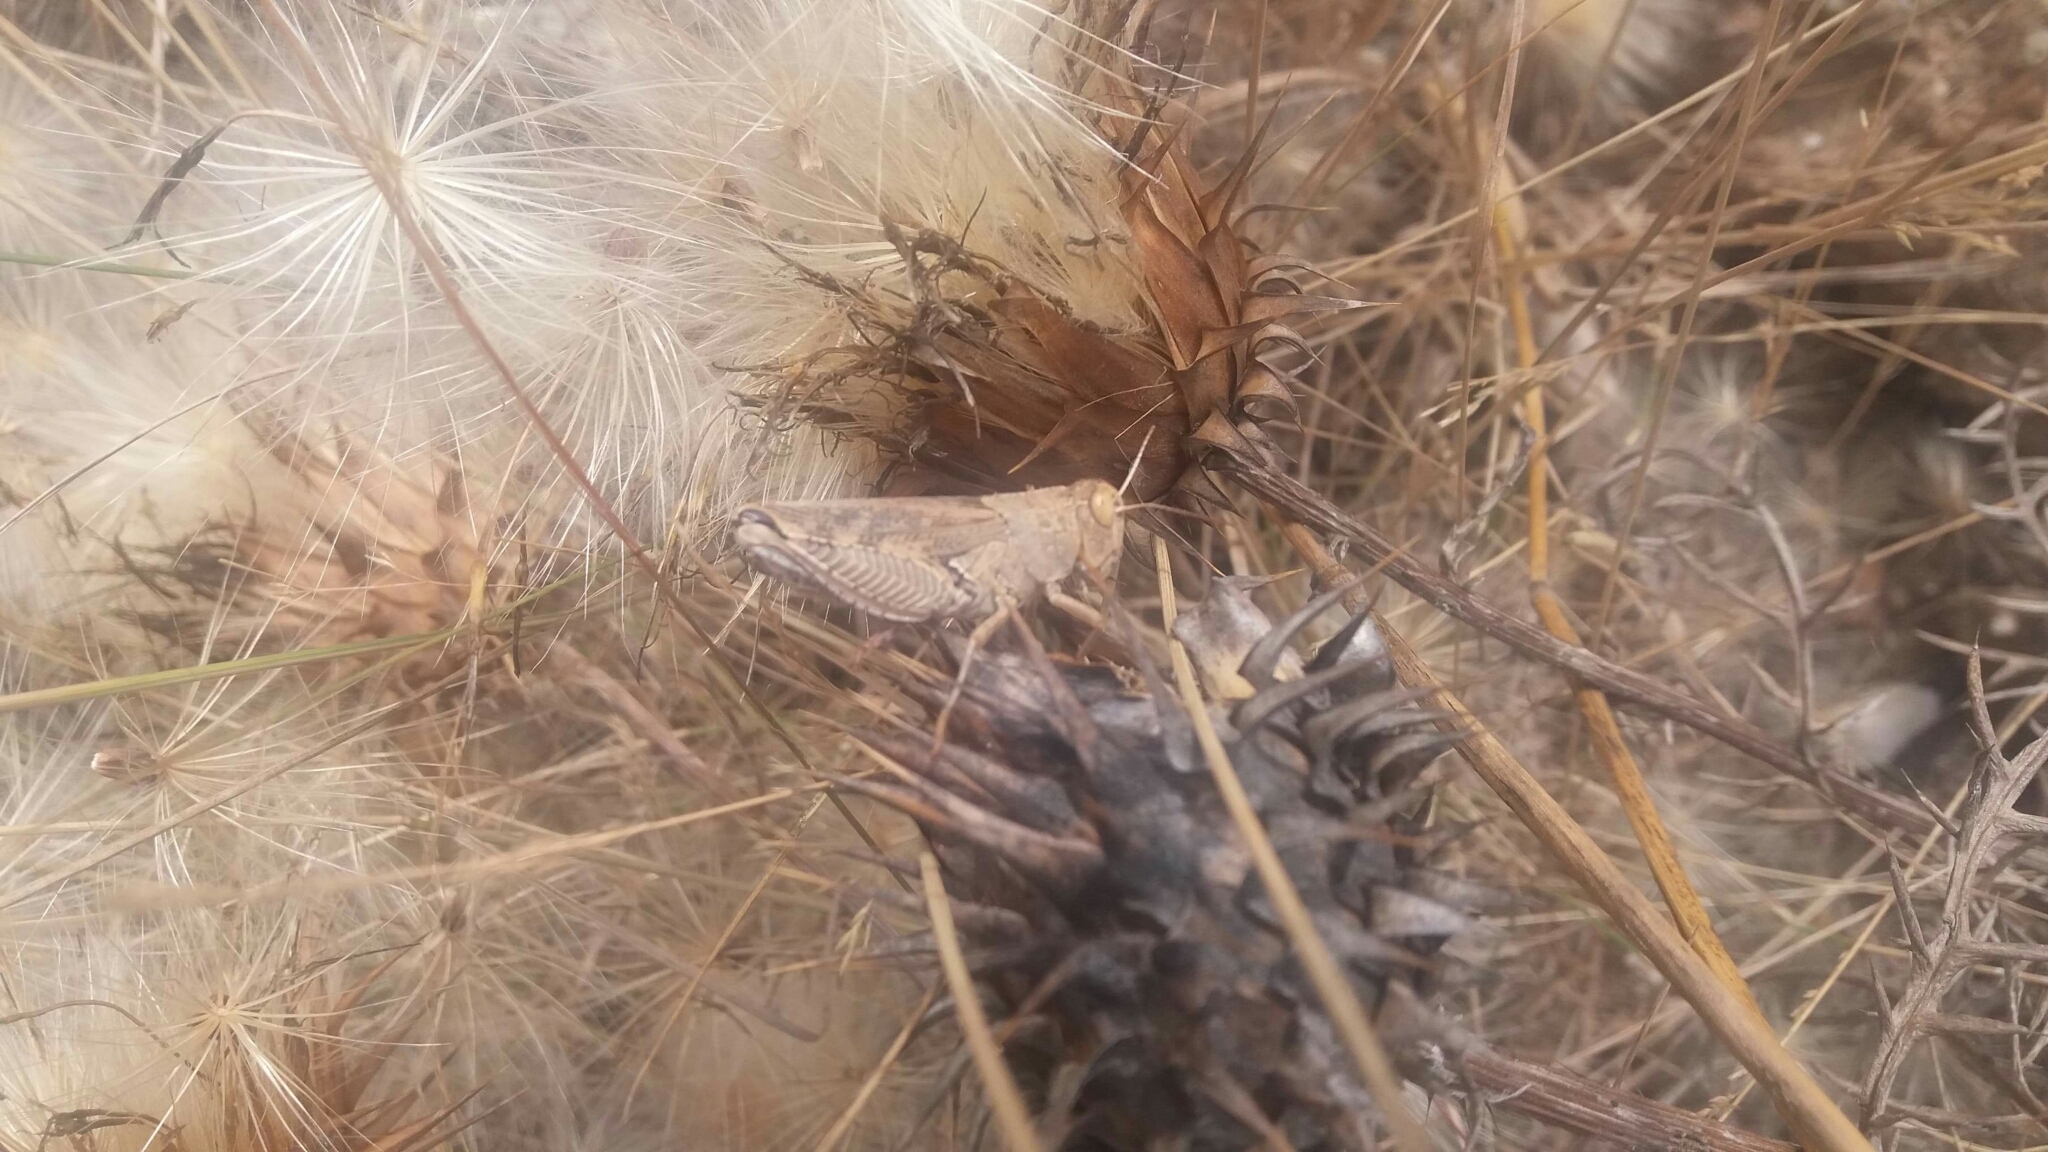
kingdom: Animalia
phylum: Arthropoda
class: Insecta
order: Orthoptera
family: Acrididae
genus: Calliptamus
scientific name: Calliptamus barbarus
